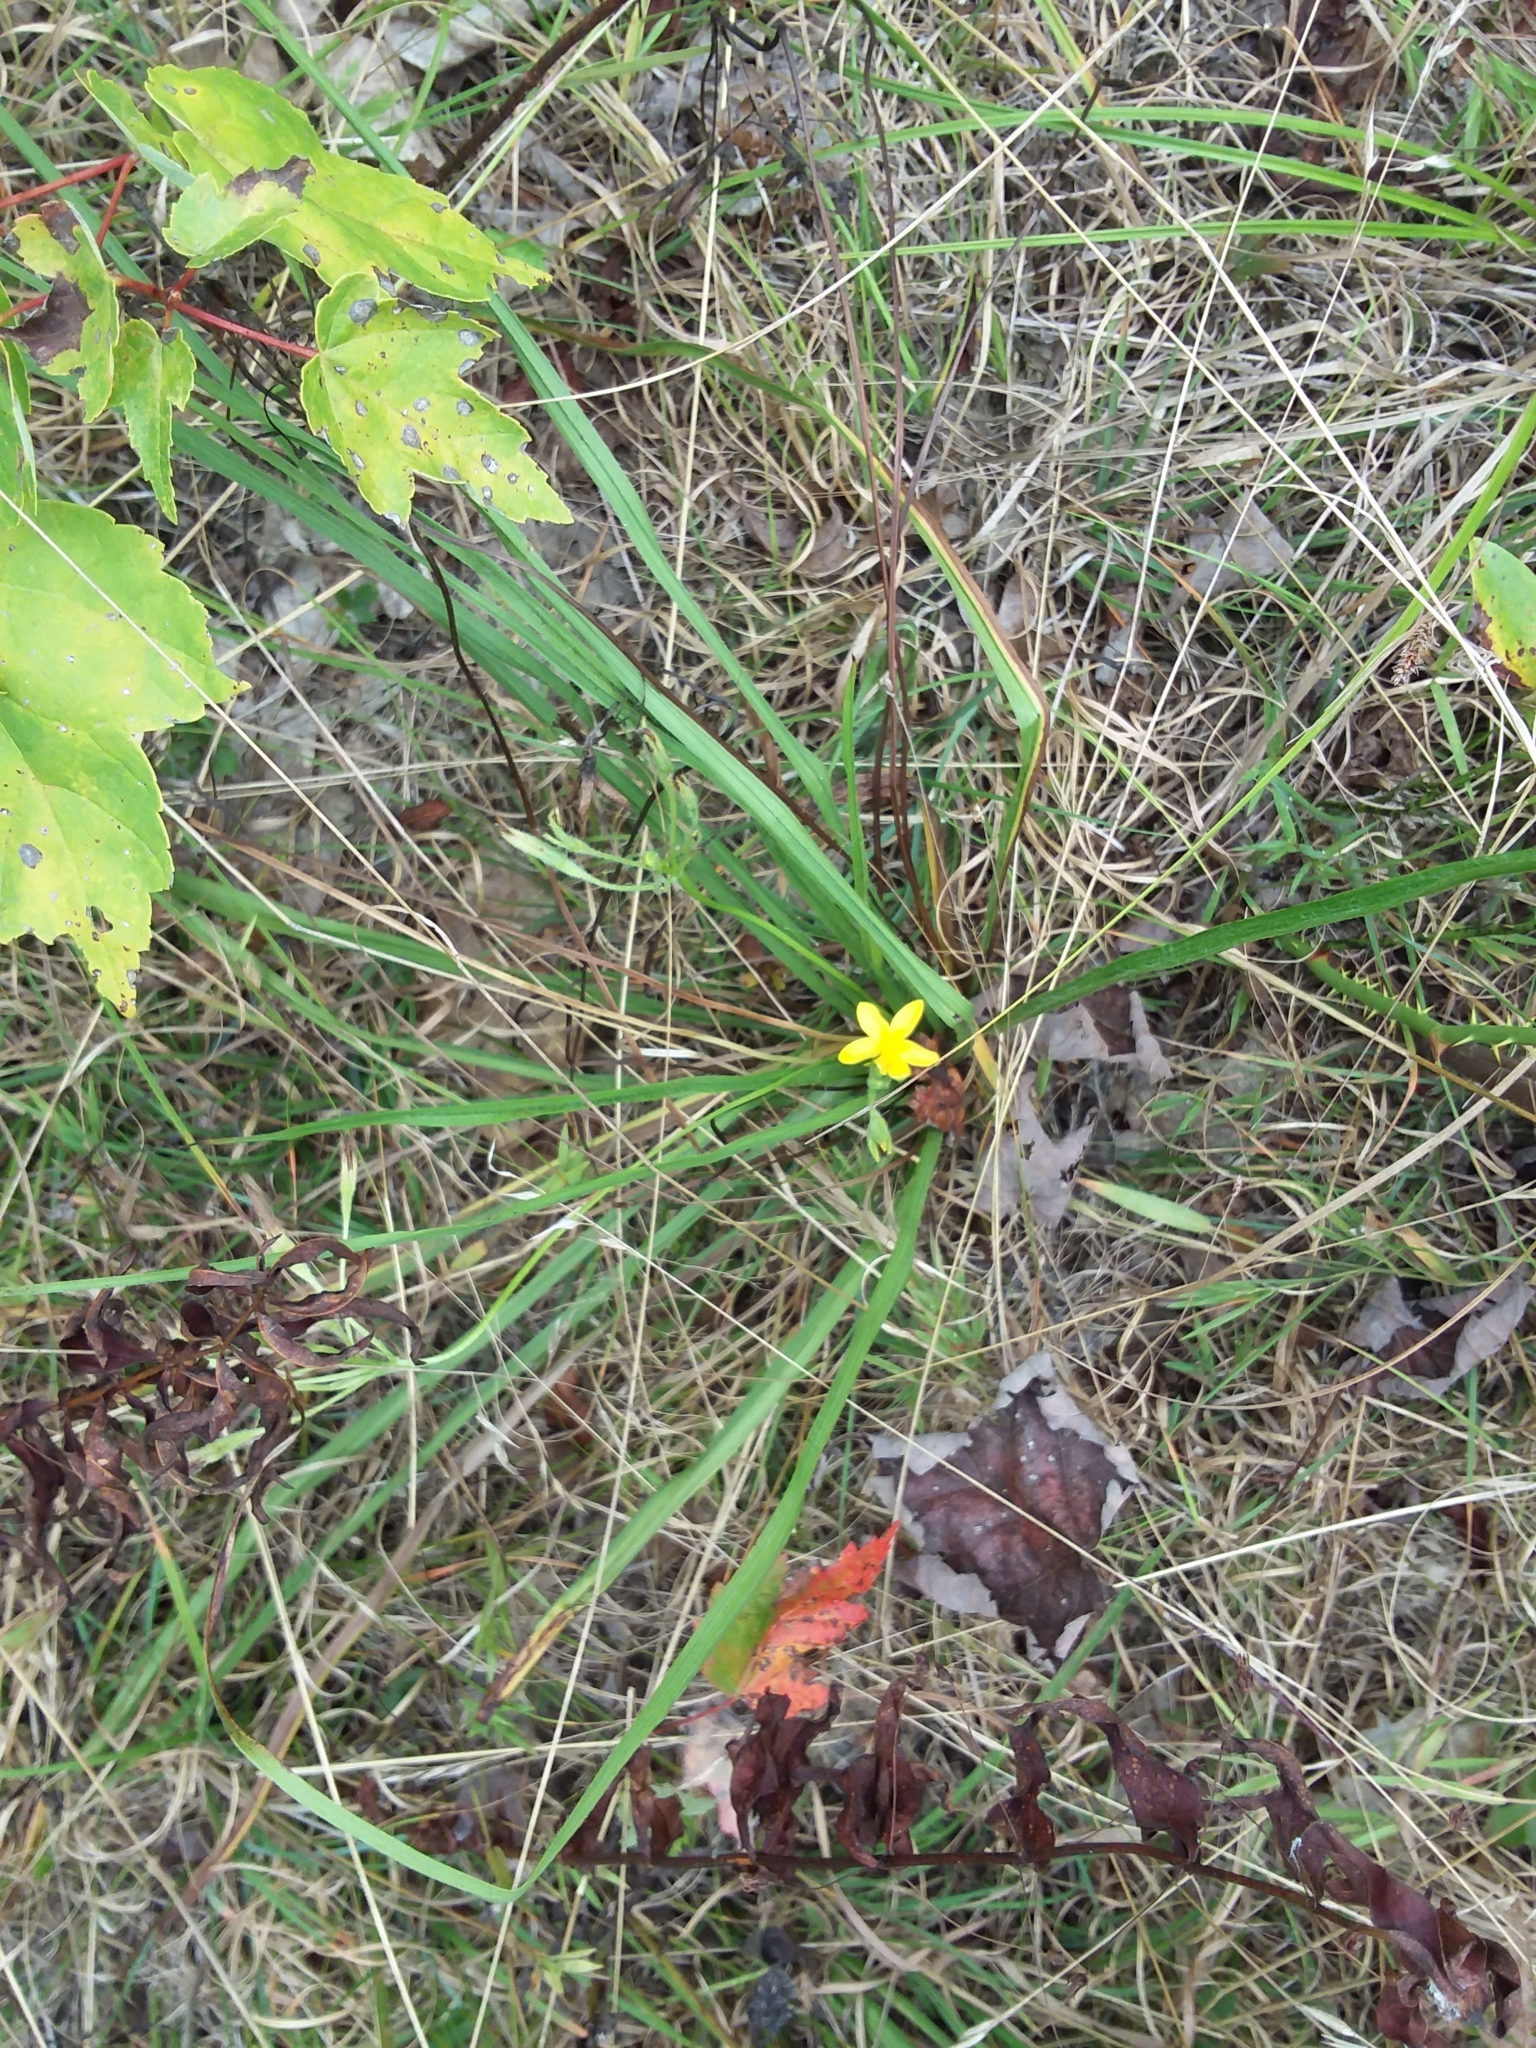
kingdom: Plantae
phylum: Tracheophyta
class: Liliopsida
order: Asparagales
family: Hypoxidaceae
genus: Hypoxis
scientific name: Hypoxis hirsuta
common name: Common goldstar
